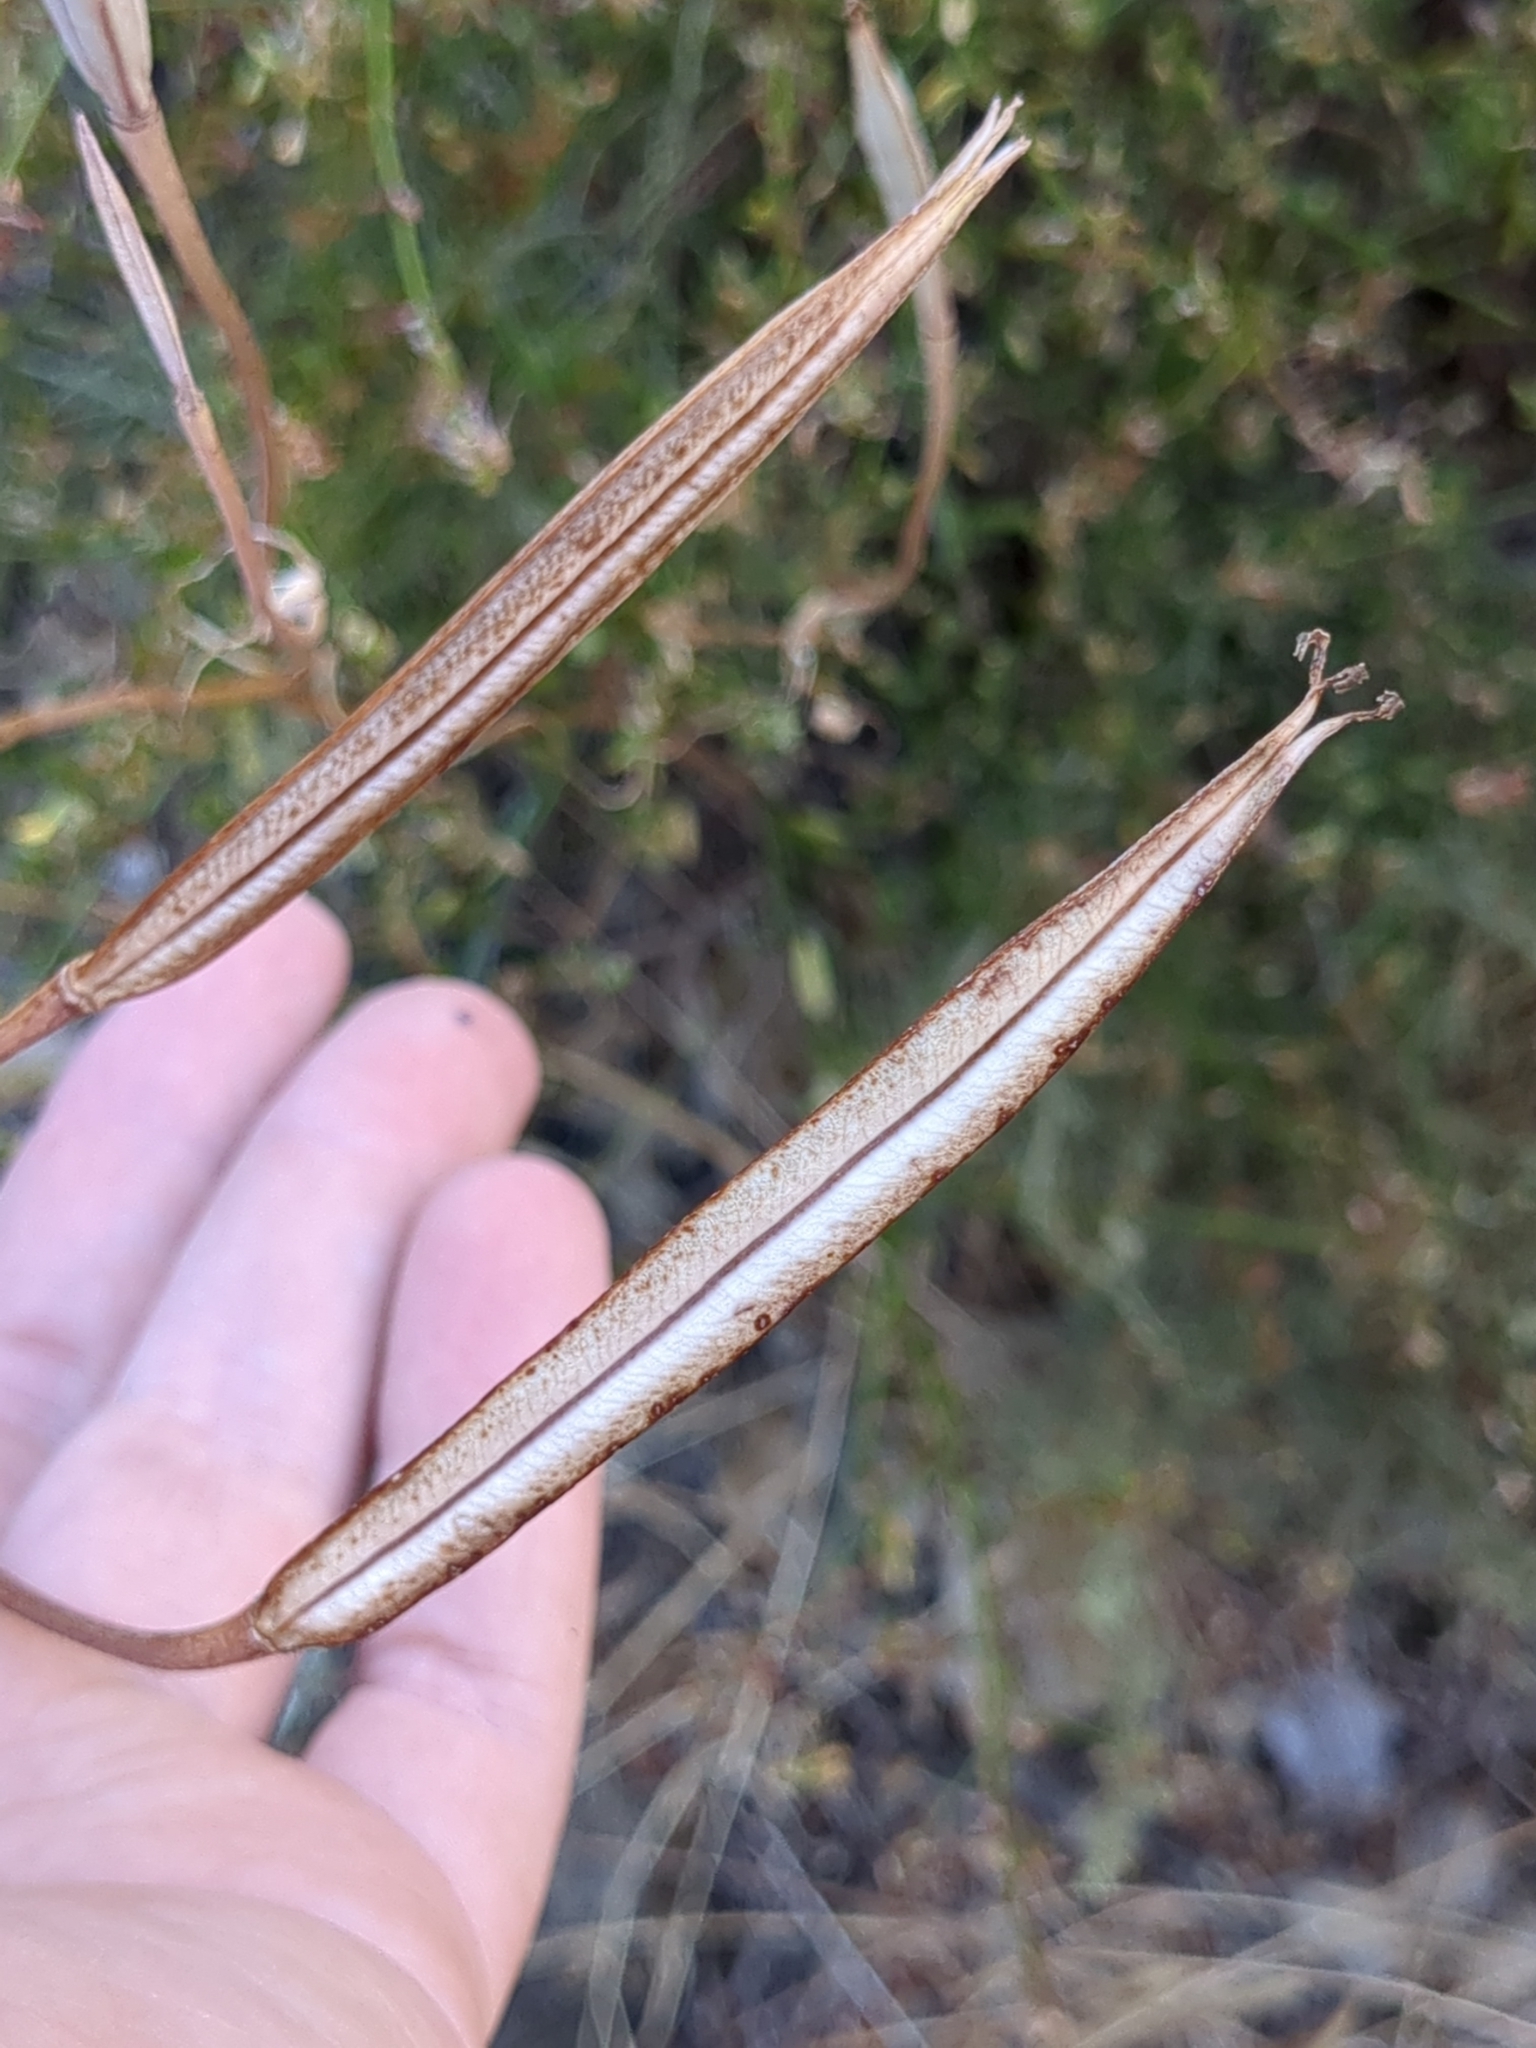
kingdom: Plantae
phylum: Tracheophyta
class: Liliopsida
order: Liliales
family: Liliaceae
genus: Calochortus
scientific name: Calochortus splendens
